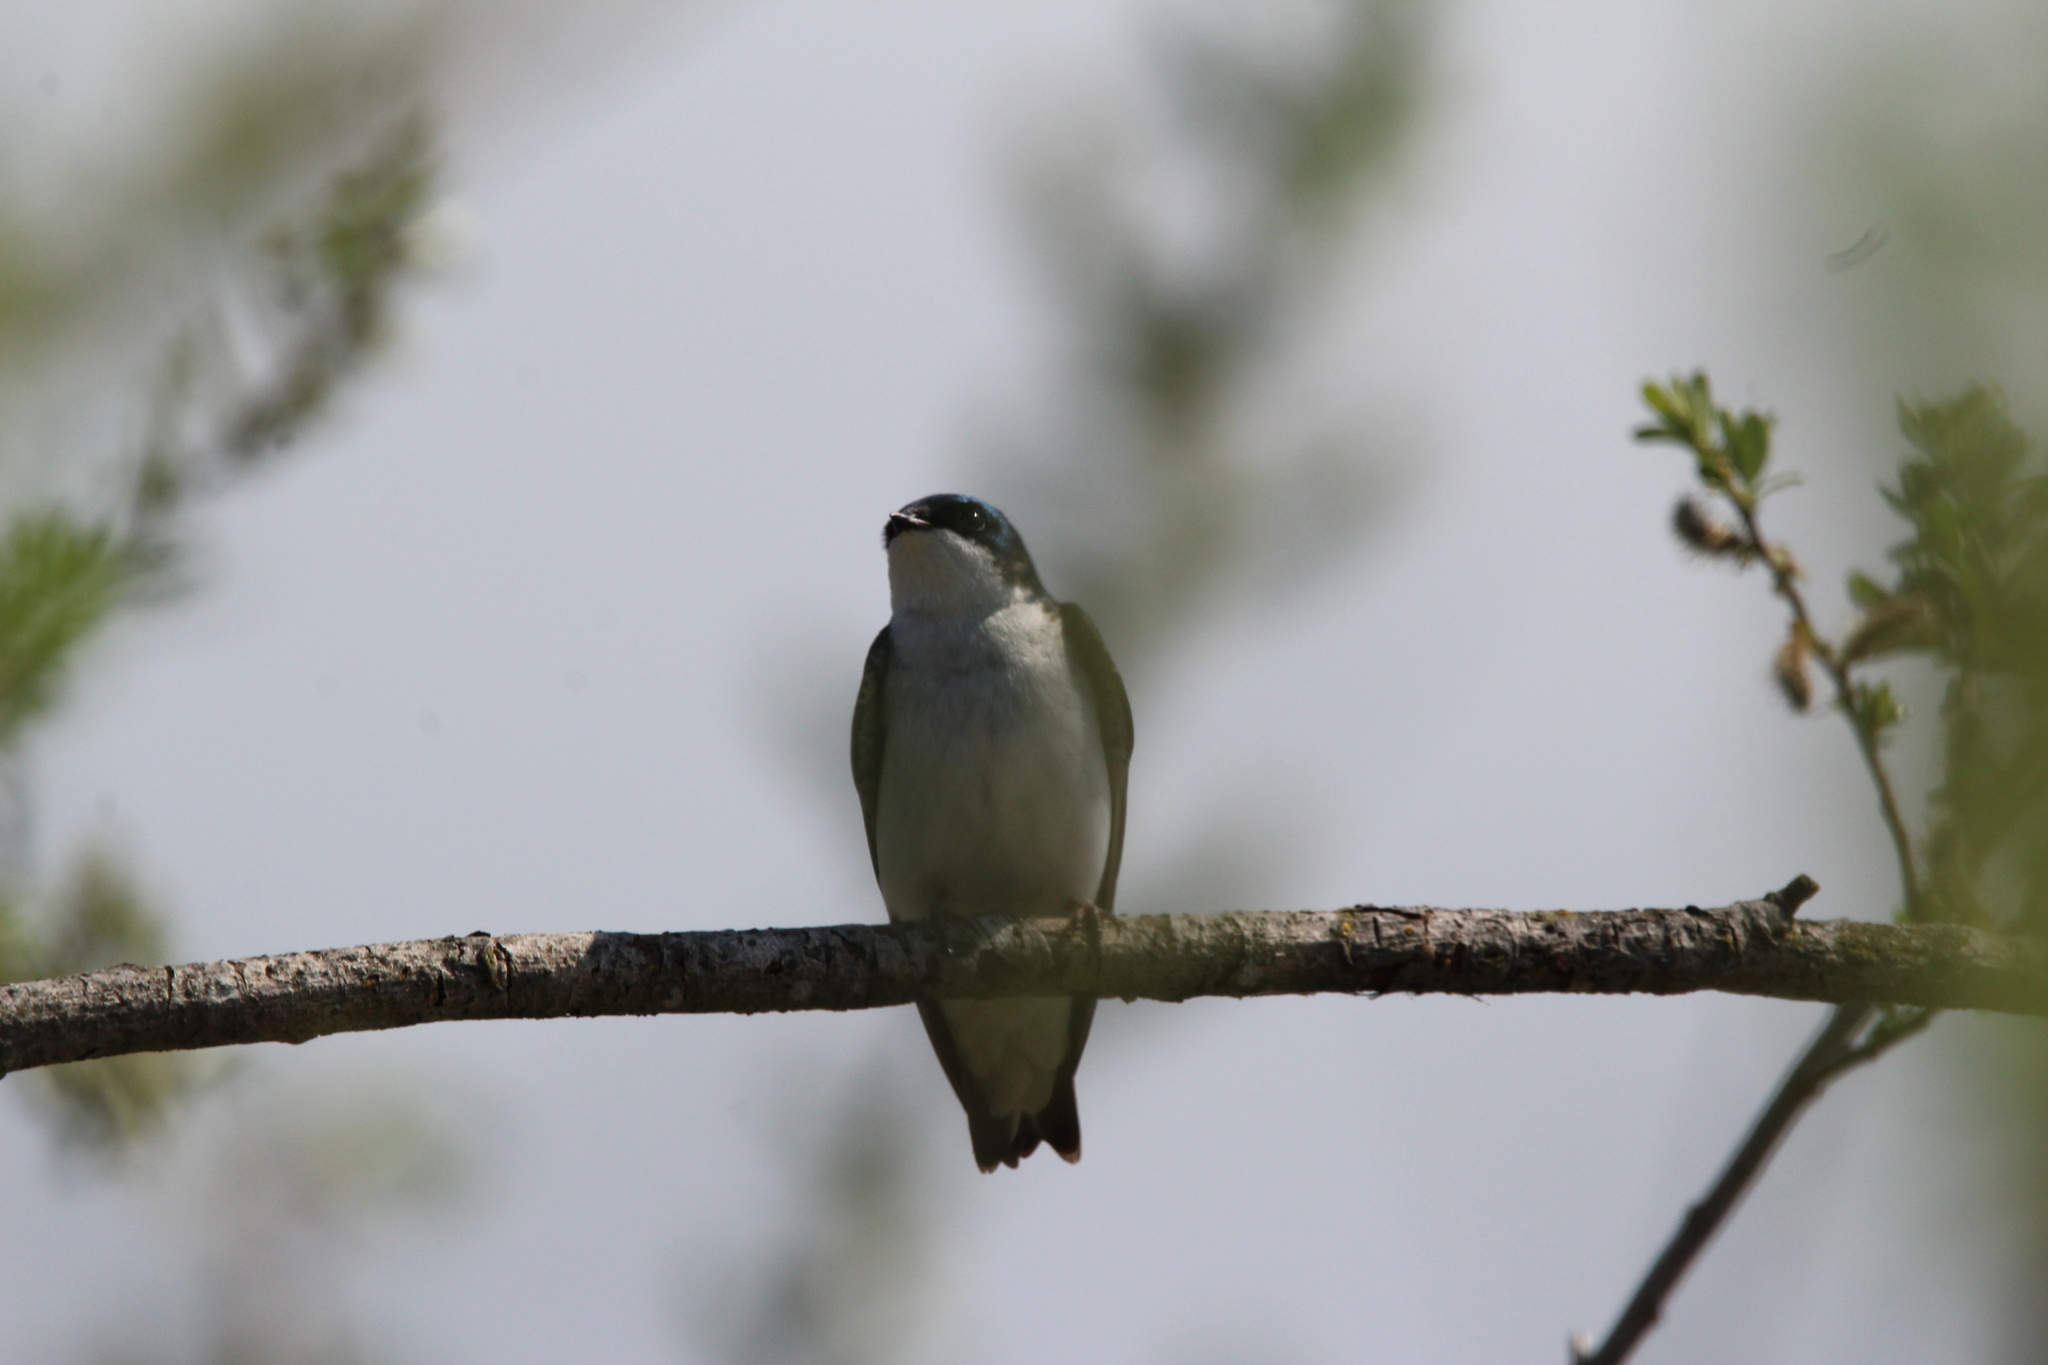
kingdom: Animalia
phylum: Chordata
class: Aves
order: Passeriformes
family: Hirundinidae
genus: Tachycineta
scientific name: Tachycineta bicolor
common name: Tree swallow
